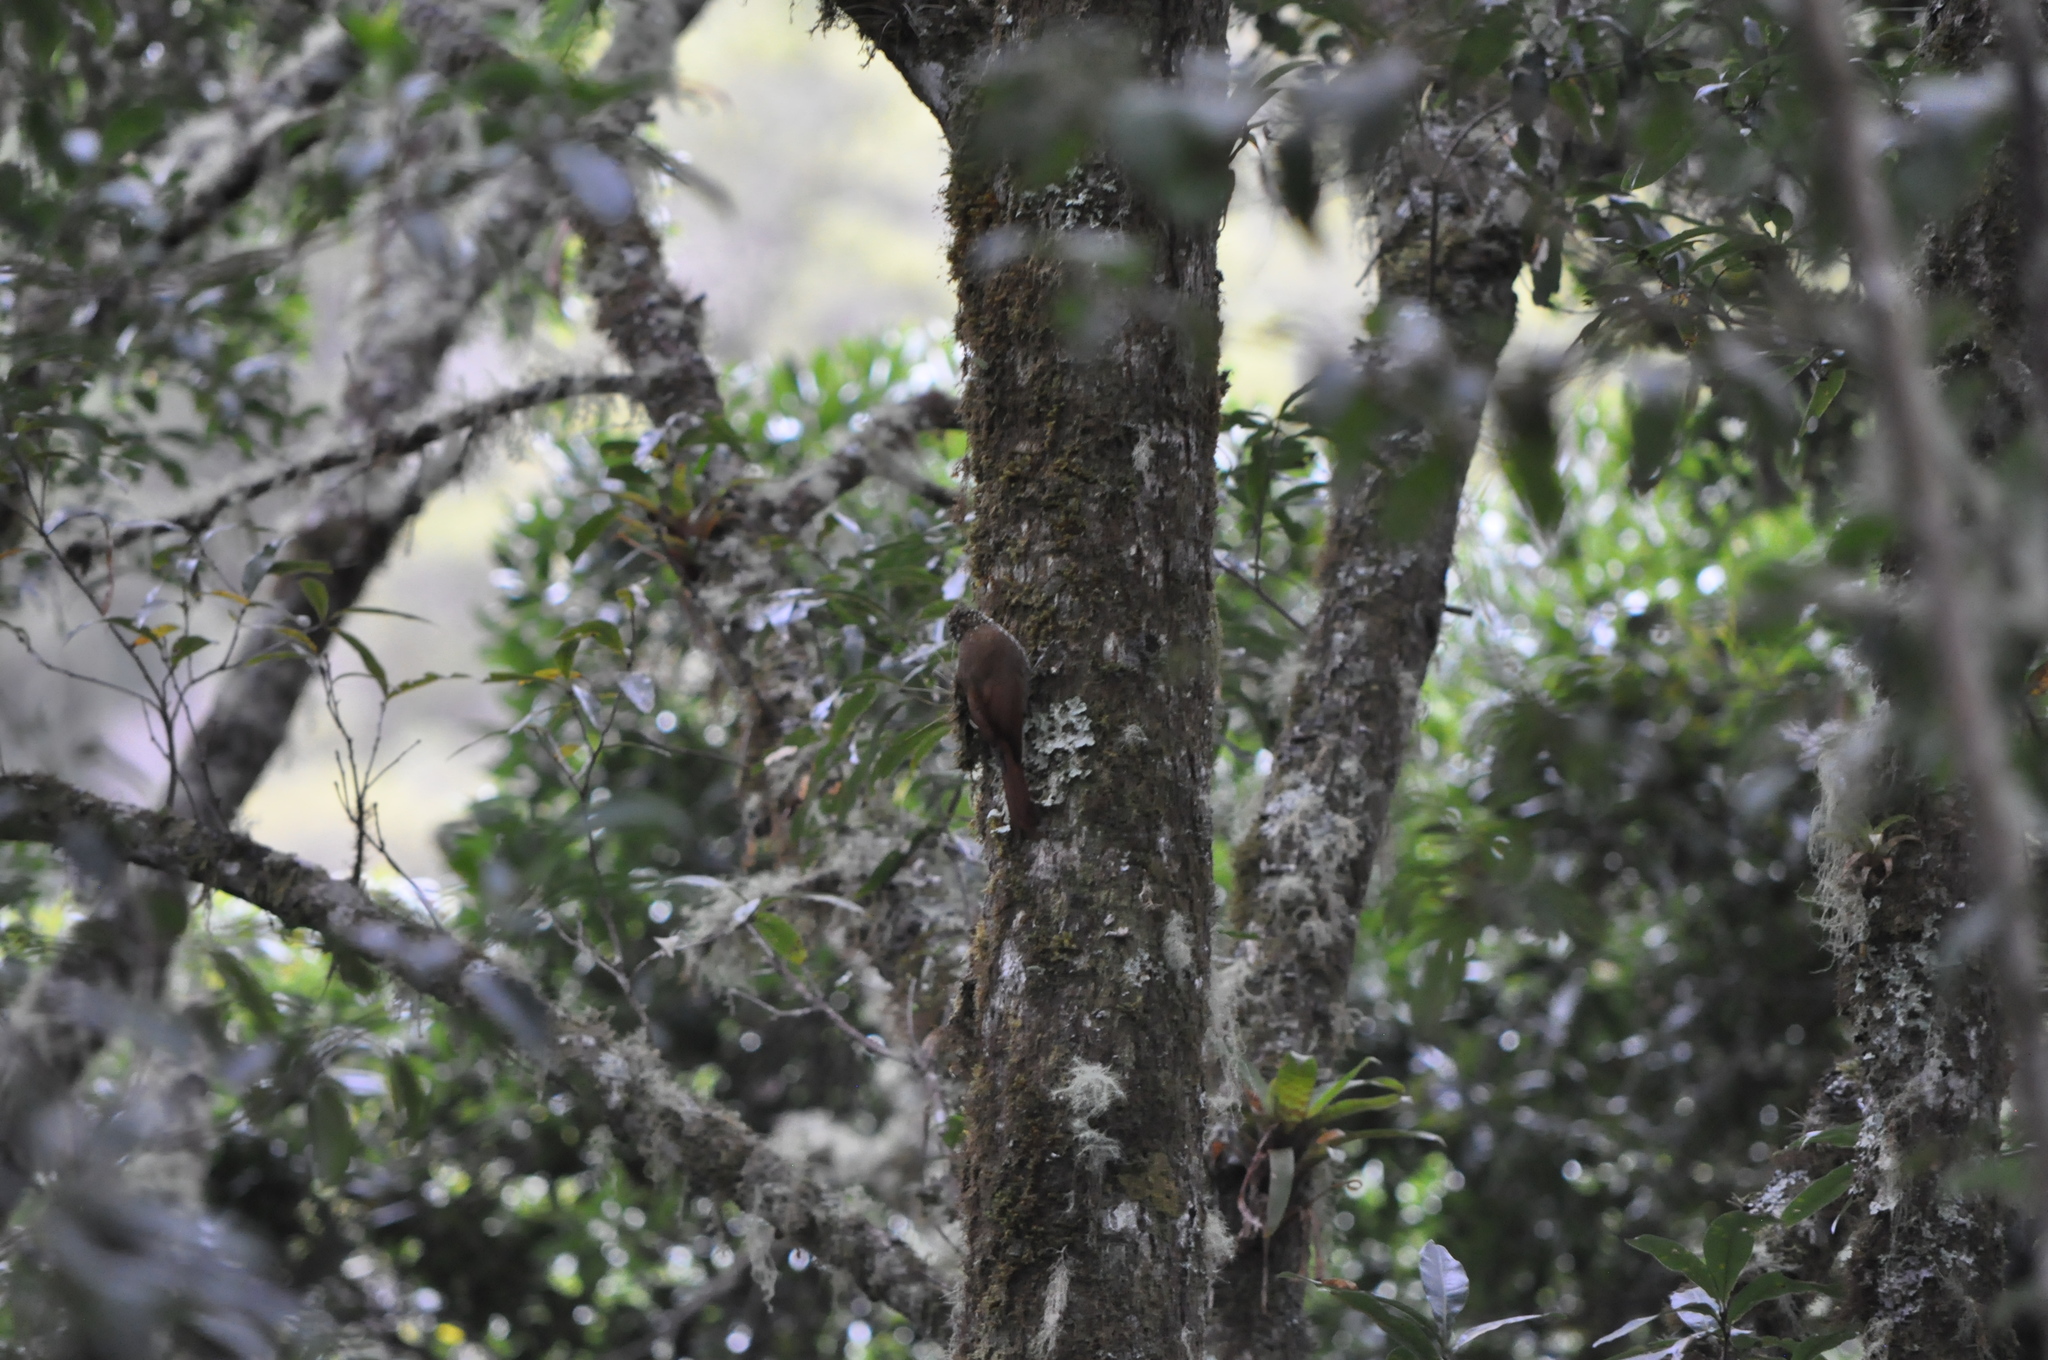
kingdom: Animalia
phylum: Chordata
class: Aves
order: Passeriformes
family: Furnariidae
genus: Lepidocolaptes
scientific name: Lepidocolaptes affinis
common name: Spot-crowned woodcreeper
